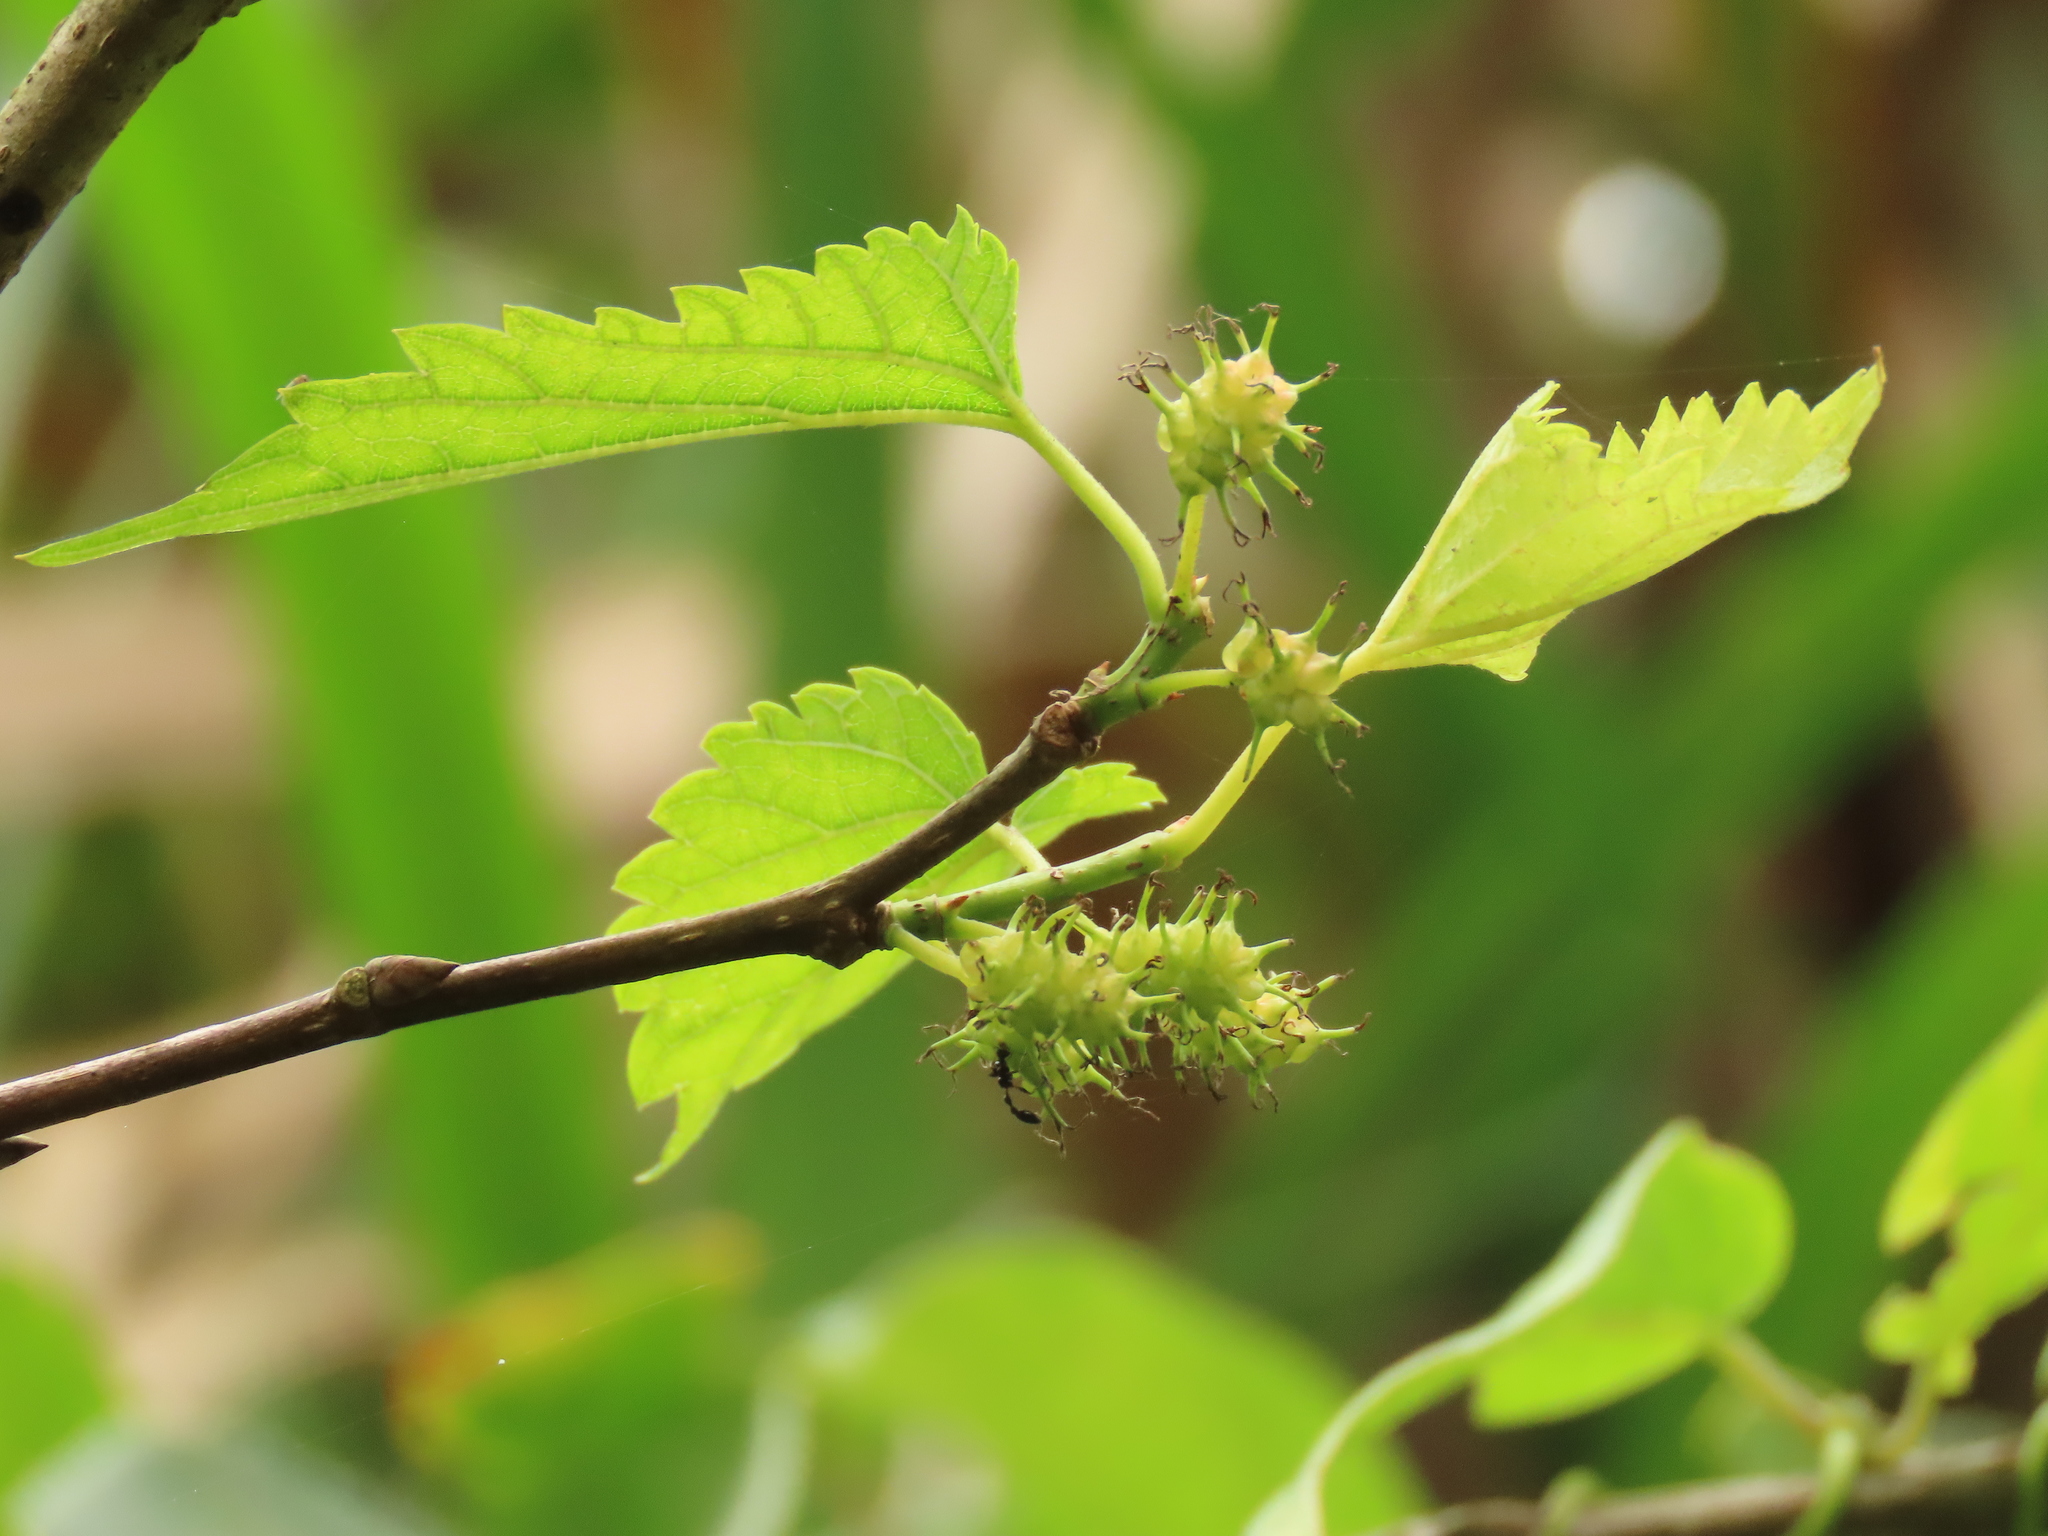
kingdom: Plantae
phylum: Tracheophyta
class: Magnoliopsida
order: Rosales
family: Moraceae
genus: Morus
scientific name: Morus indica
